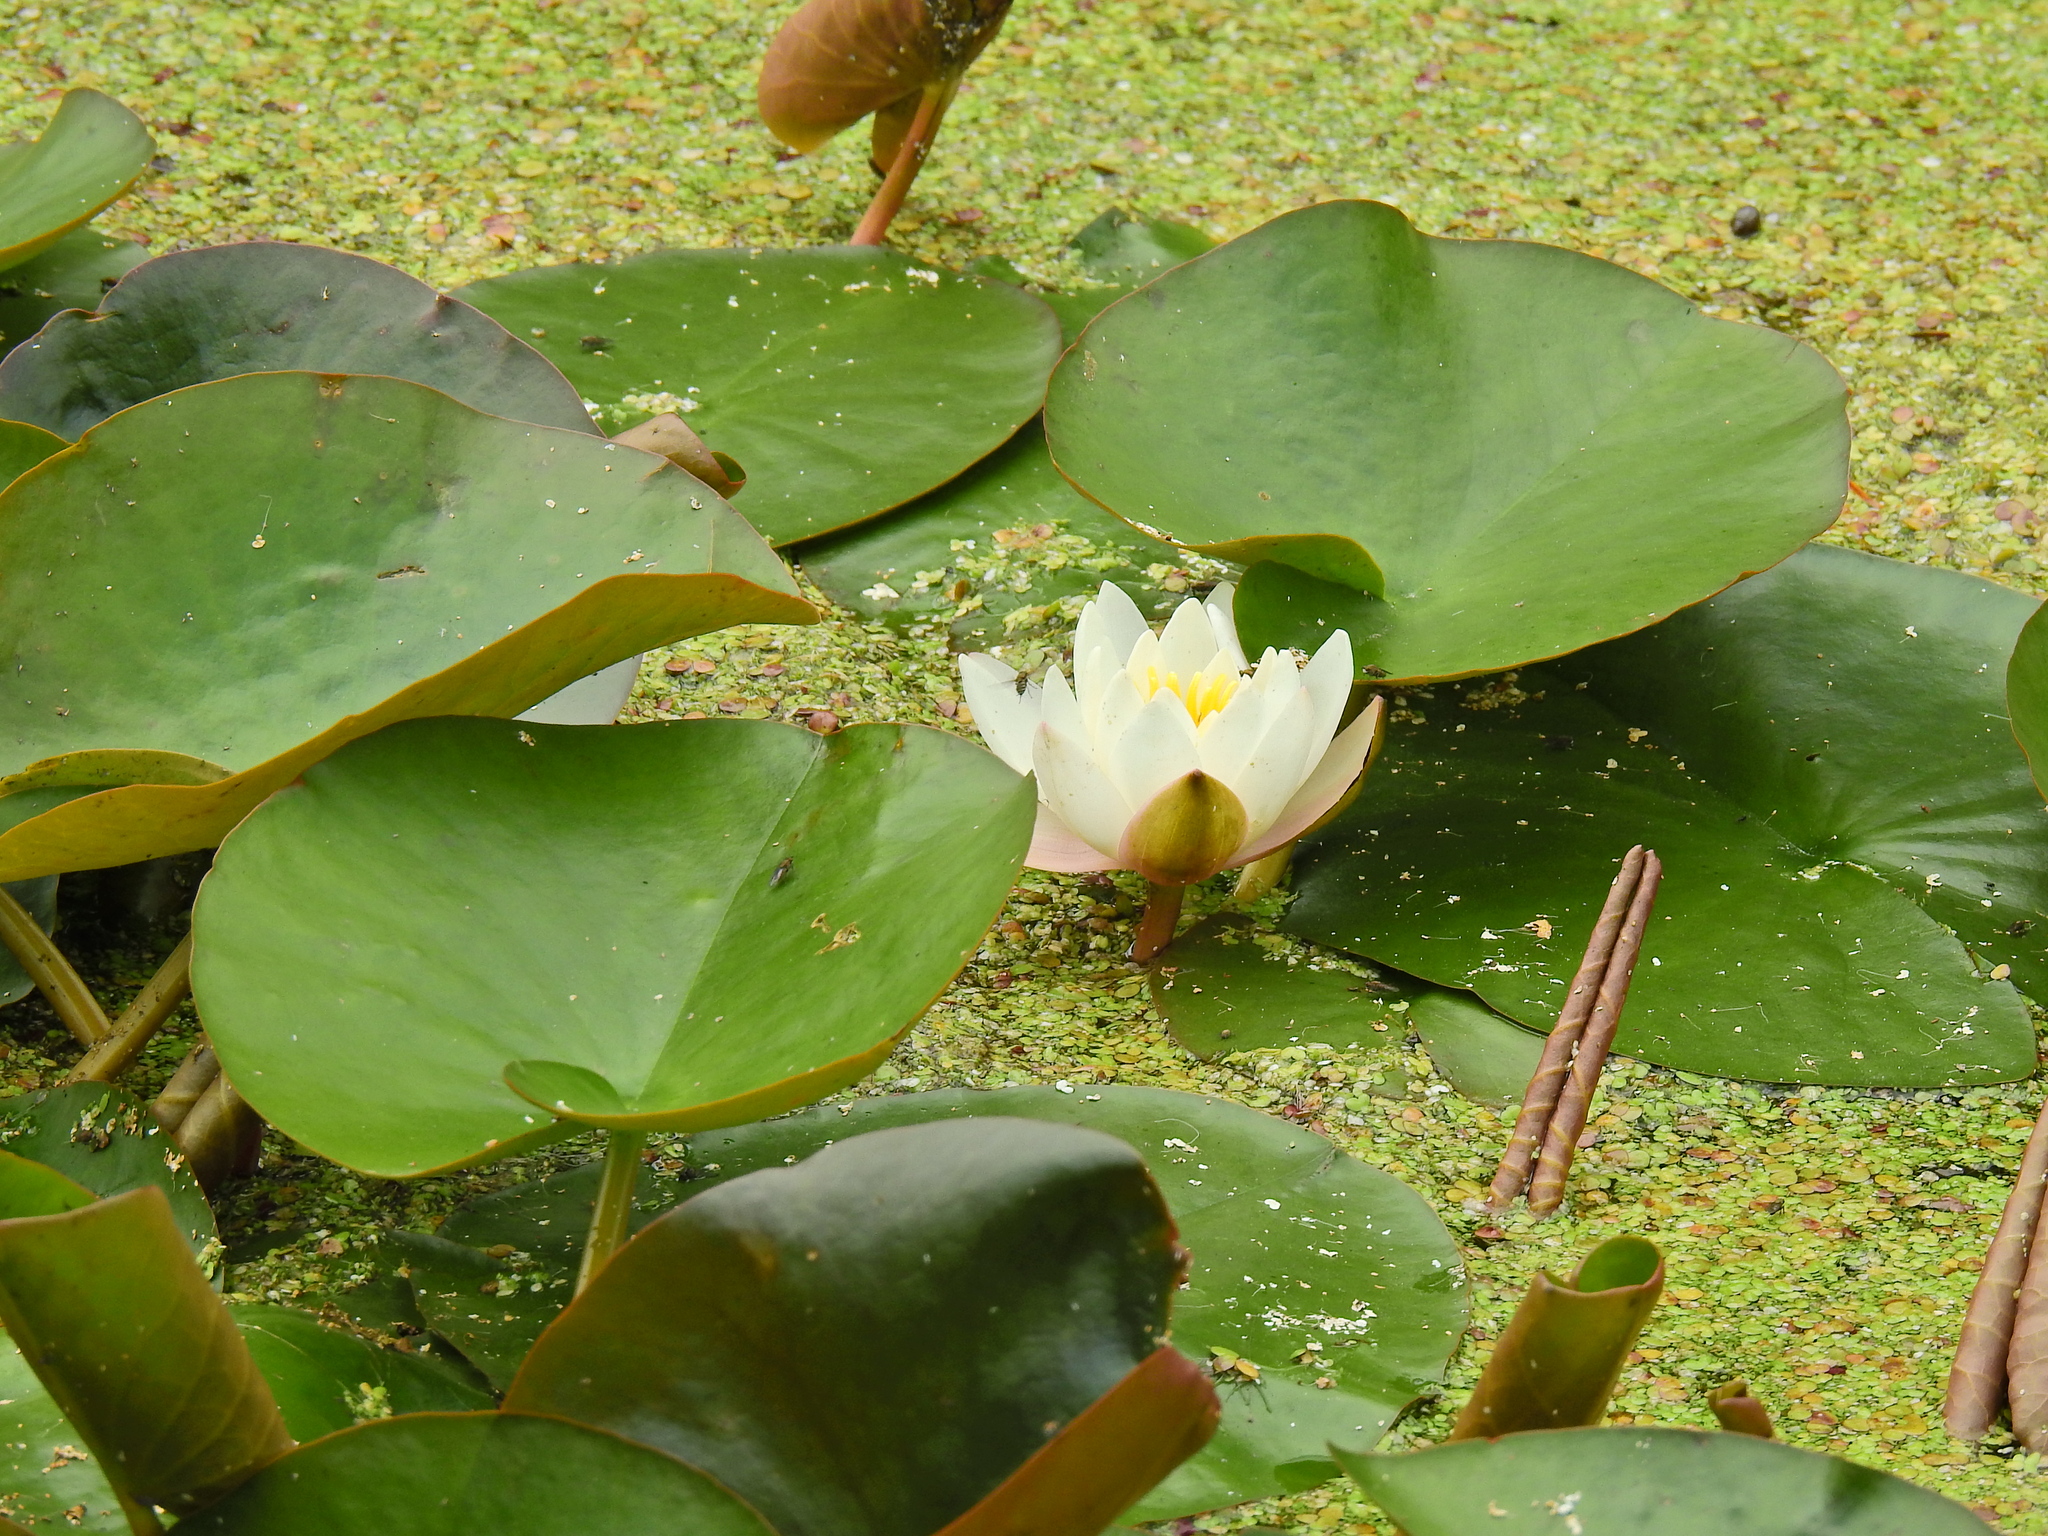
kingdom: Plantae
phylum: Tracheophyta
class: Magnoliopsida
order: Nymphaeales
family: Nymphaeaceae
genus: Nymphaea
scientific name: Nymphaea alba
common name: White water-lily
